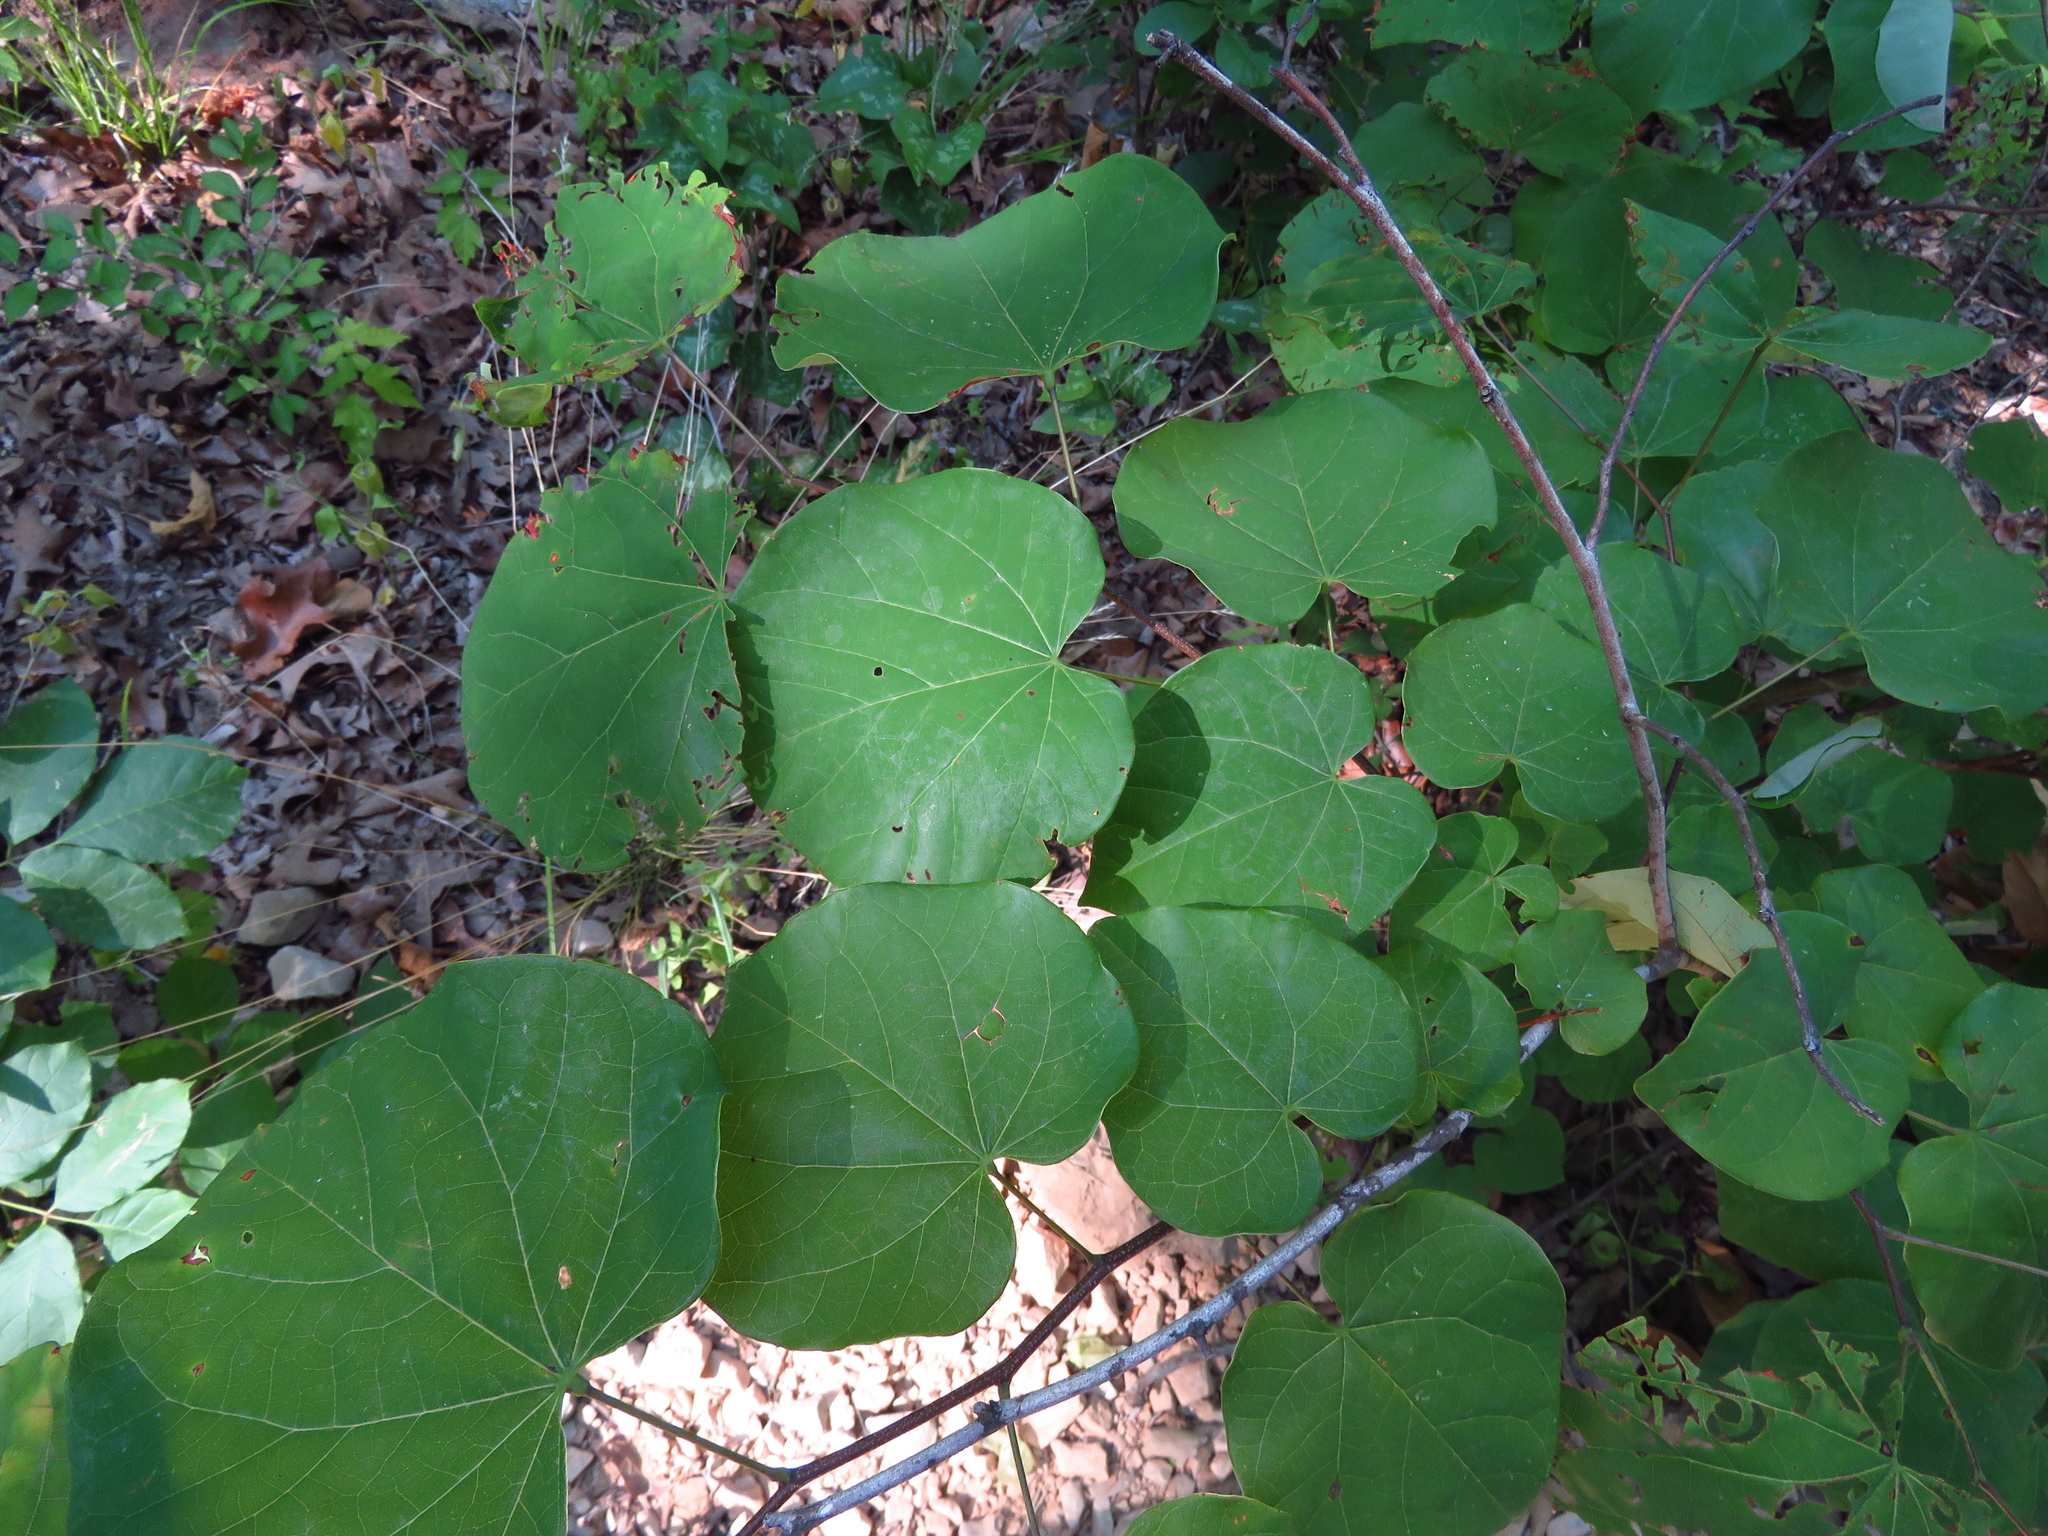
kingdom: Plantae
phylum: Tracheophyta
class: Magnoliopsida
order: Fabales
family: Fabaceae
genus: Cercis
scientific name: Cercis canadensis
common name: Eastern redbud
